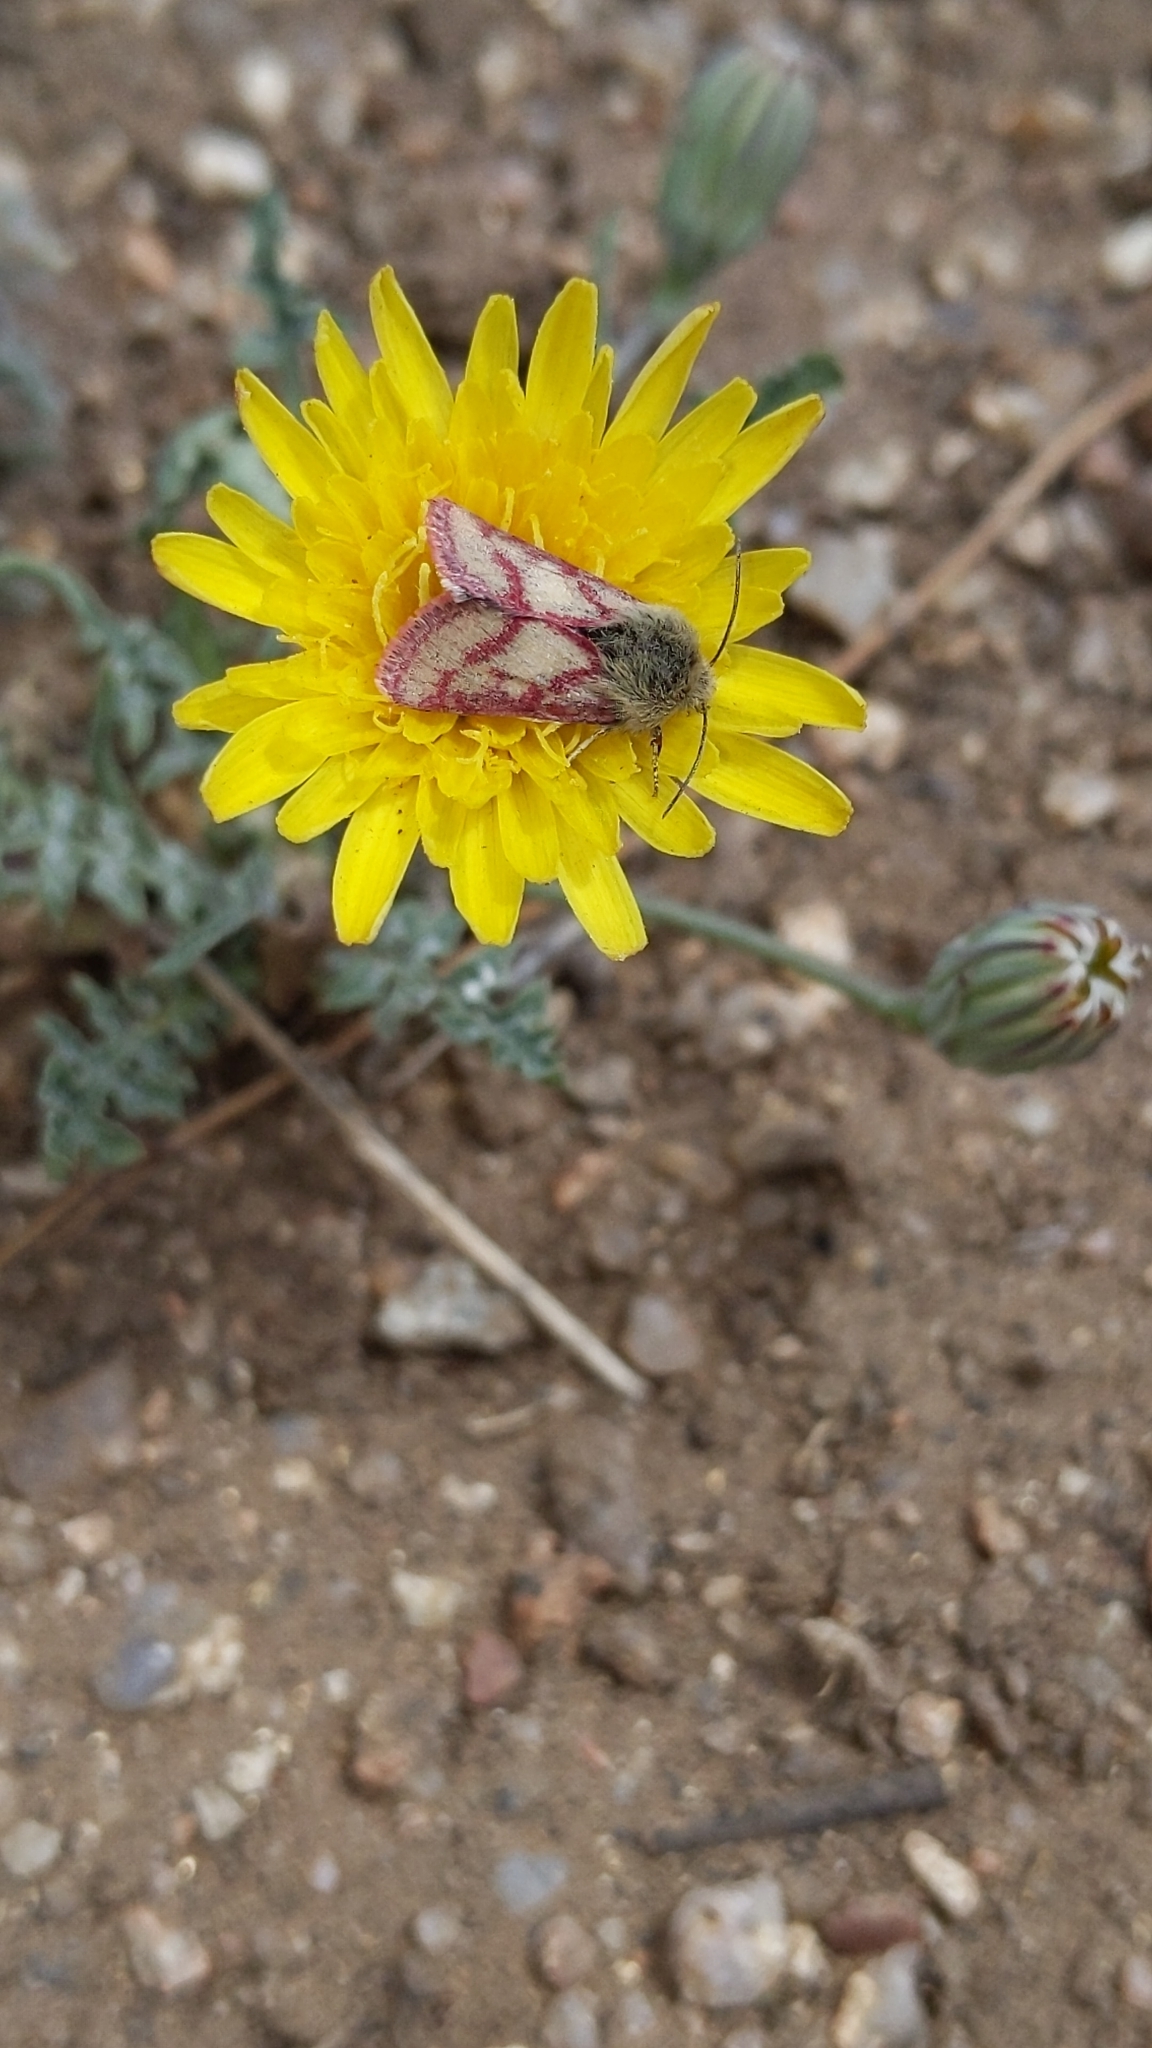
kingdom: Animalia
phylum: Arthropoda
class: Insecta
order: Lepidoptera
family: Noctuidae
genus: Heliolonche
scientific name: Heliolonche pictipennis
